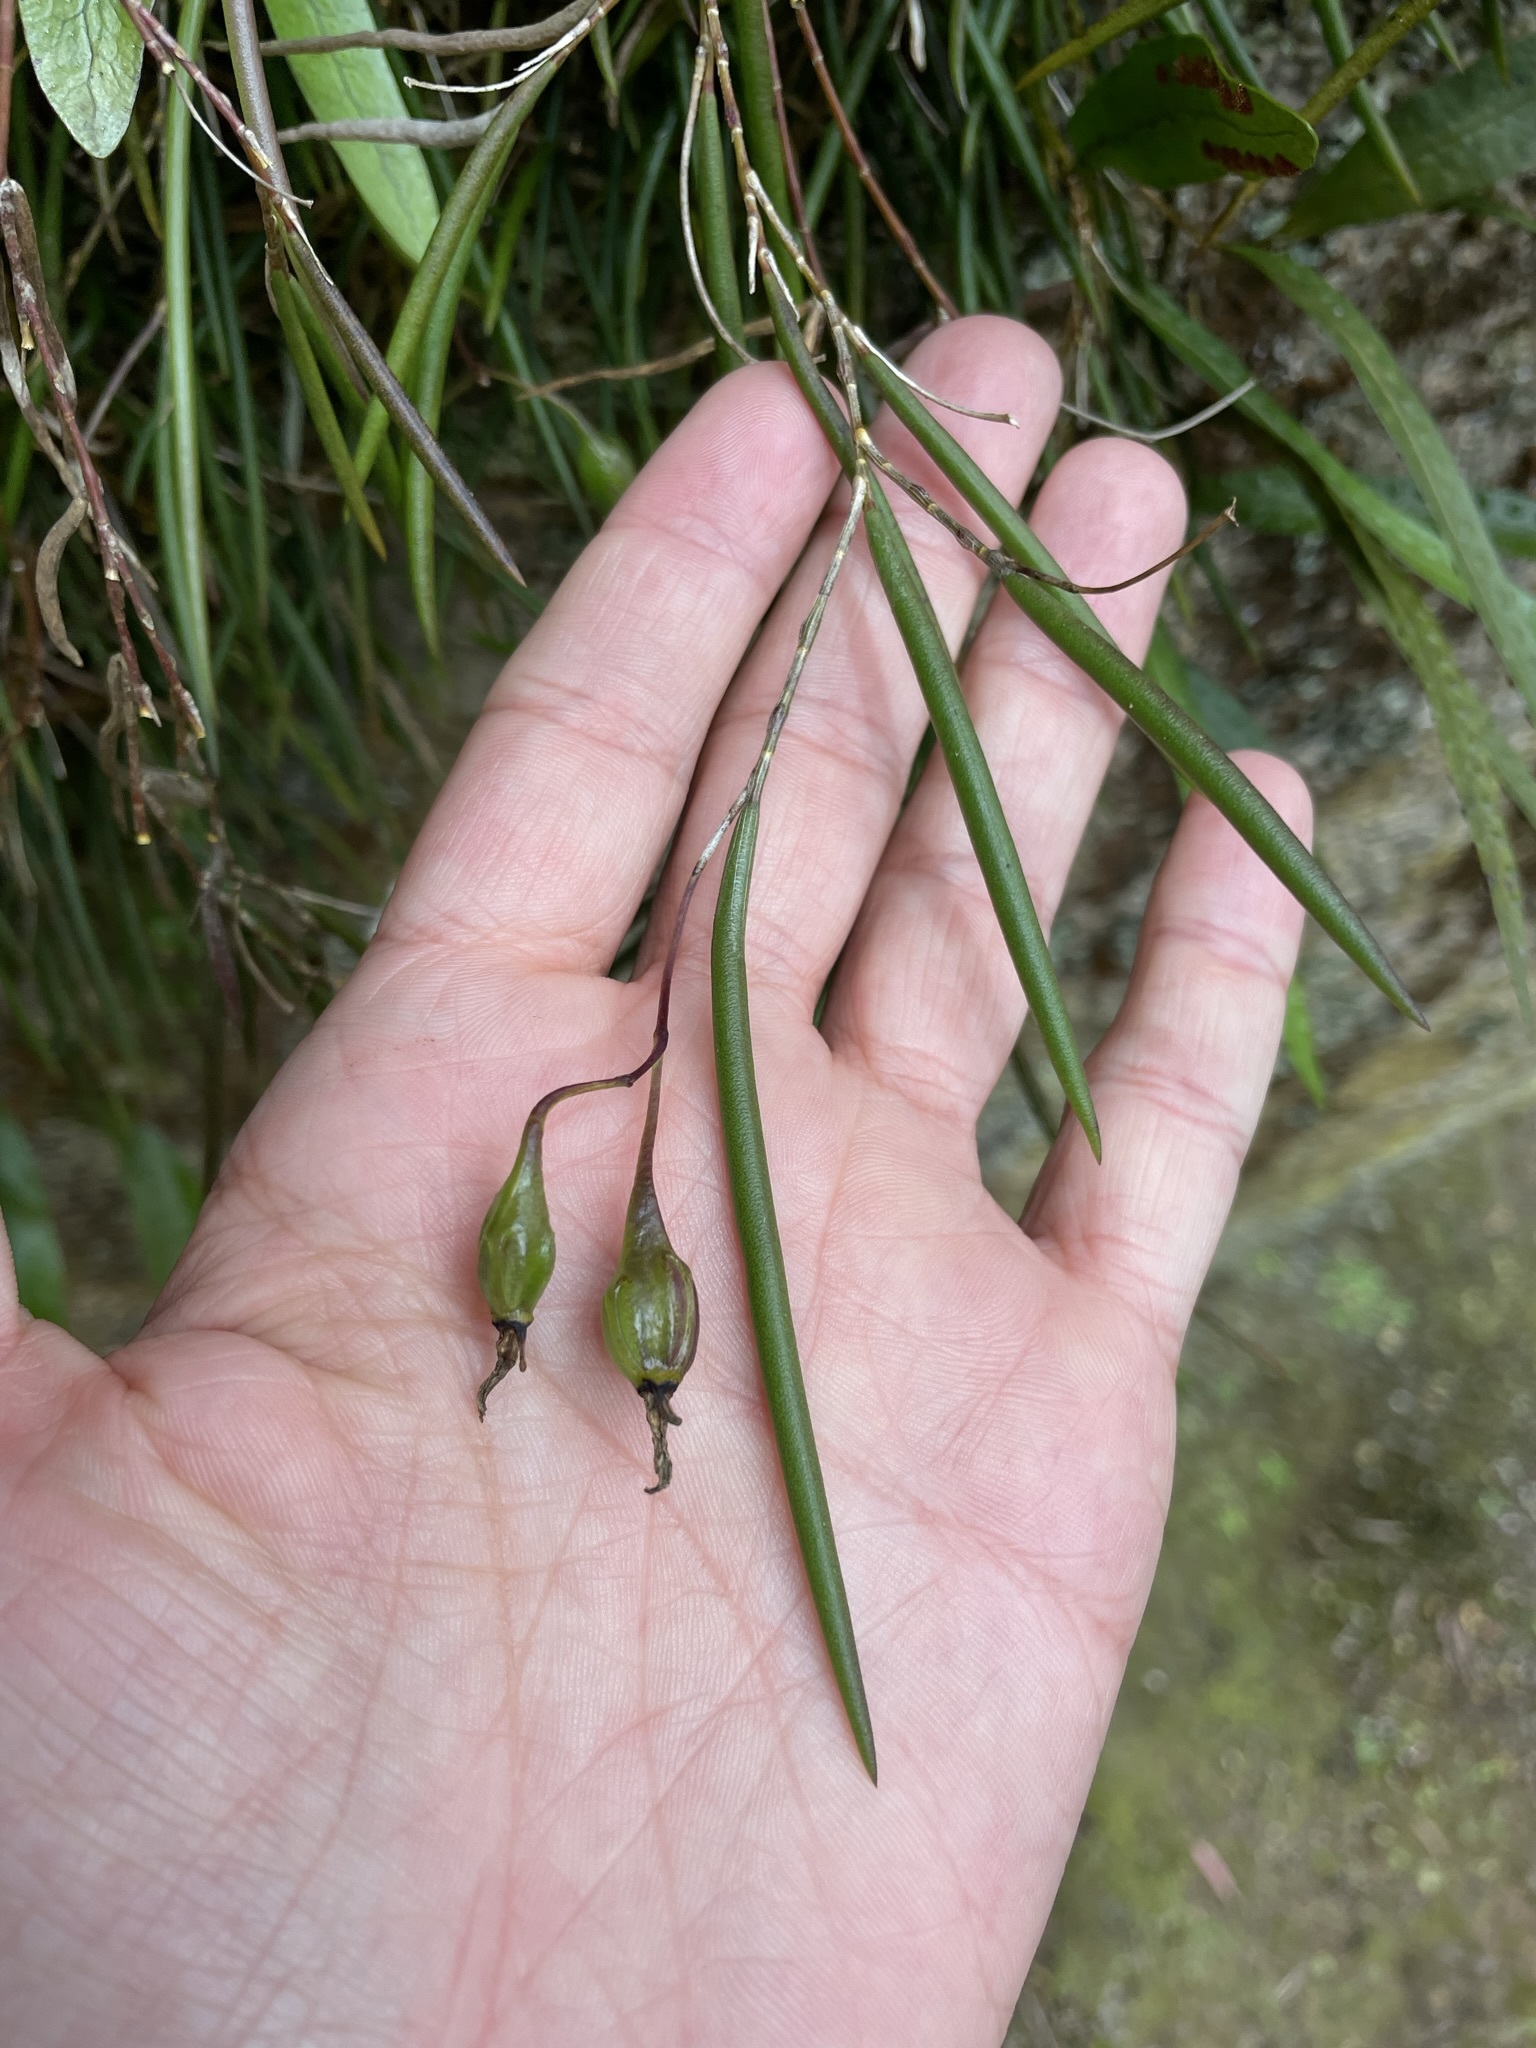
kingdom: Plantae
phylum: Tracheophyta
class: Liliopsida
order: Asparagales
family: Orchidaceae
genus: Dendrobium
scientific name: Dendrobium striolatum
